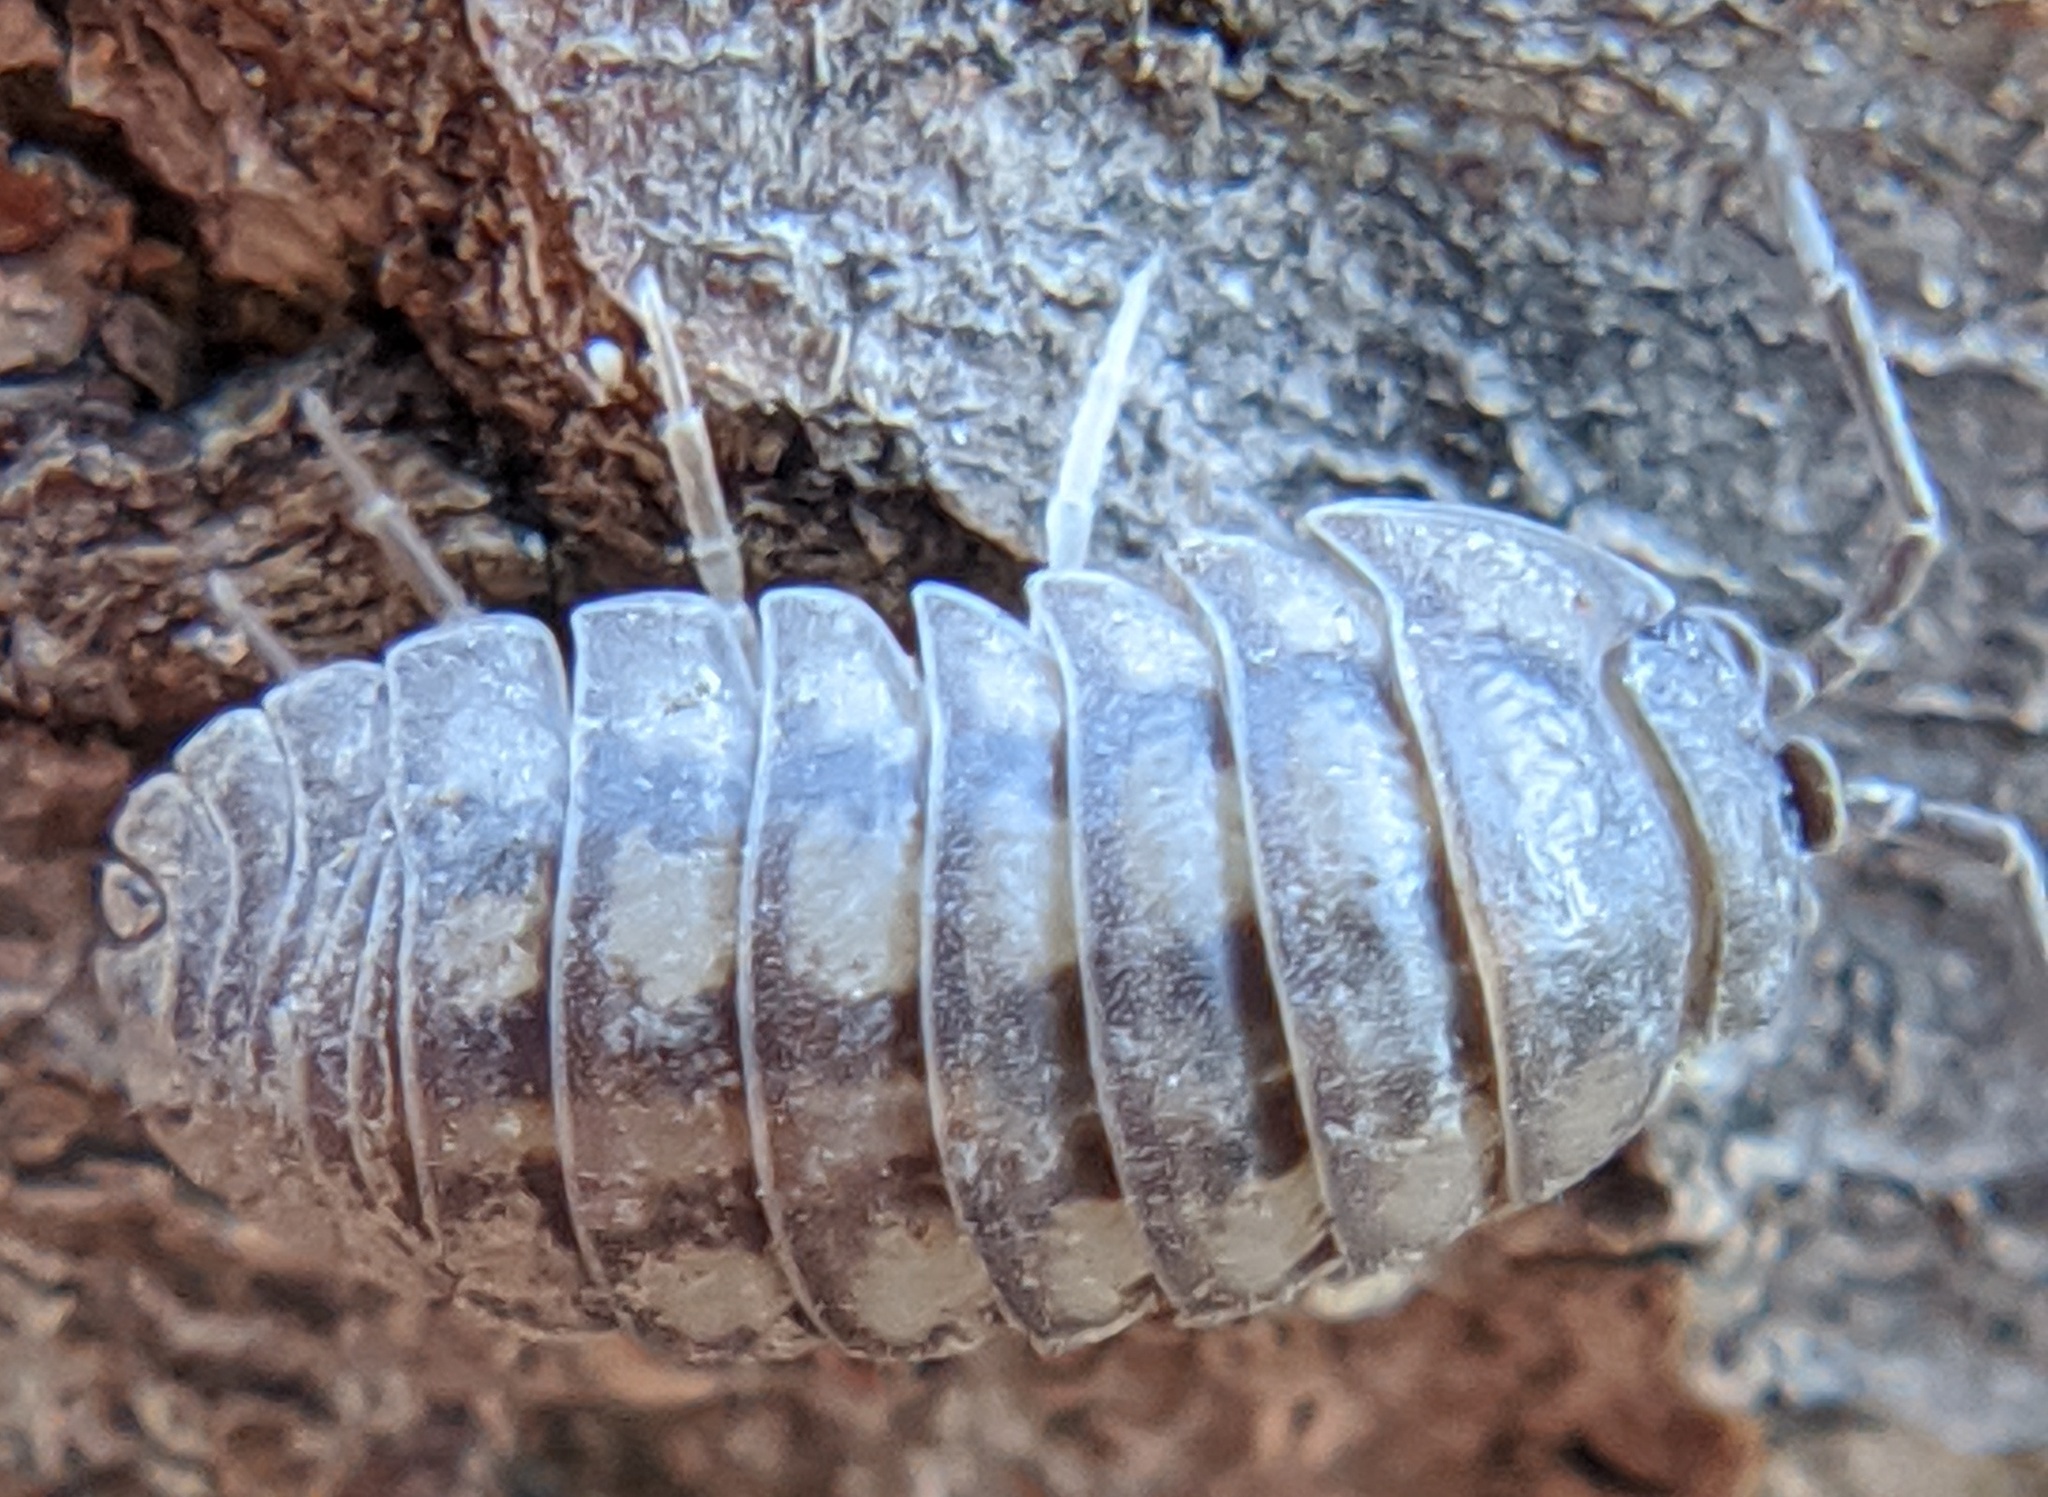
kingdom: Animalia
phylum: Arthropoda
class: Malacostraca
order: Isopoda
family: Armadillidiidae
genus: Armadillidium
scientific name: Armadillidium nasatum
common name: Isopod
